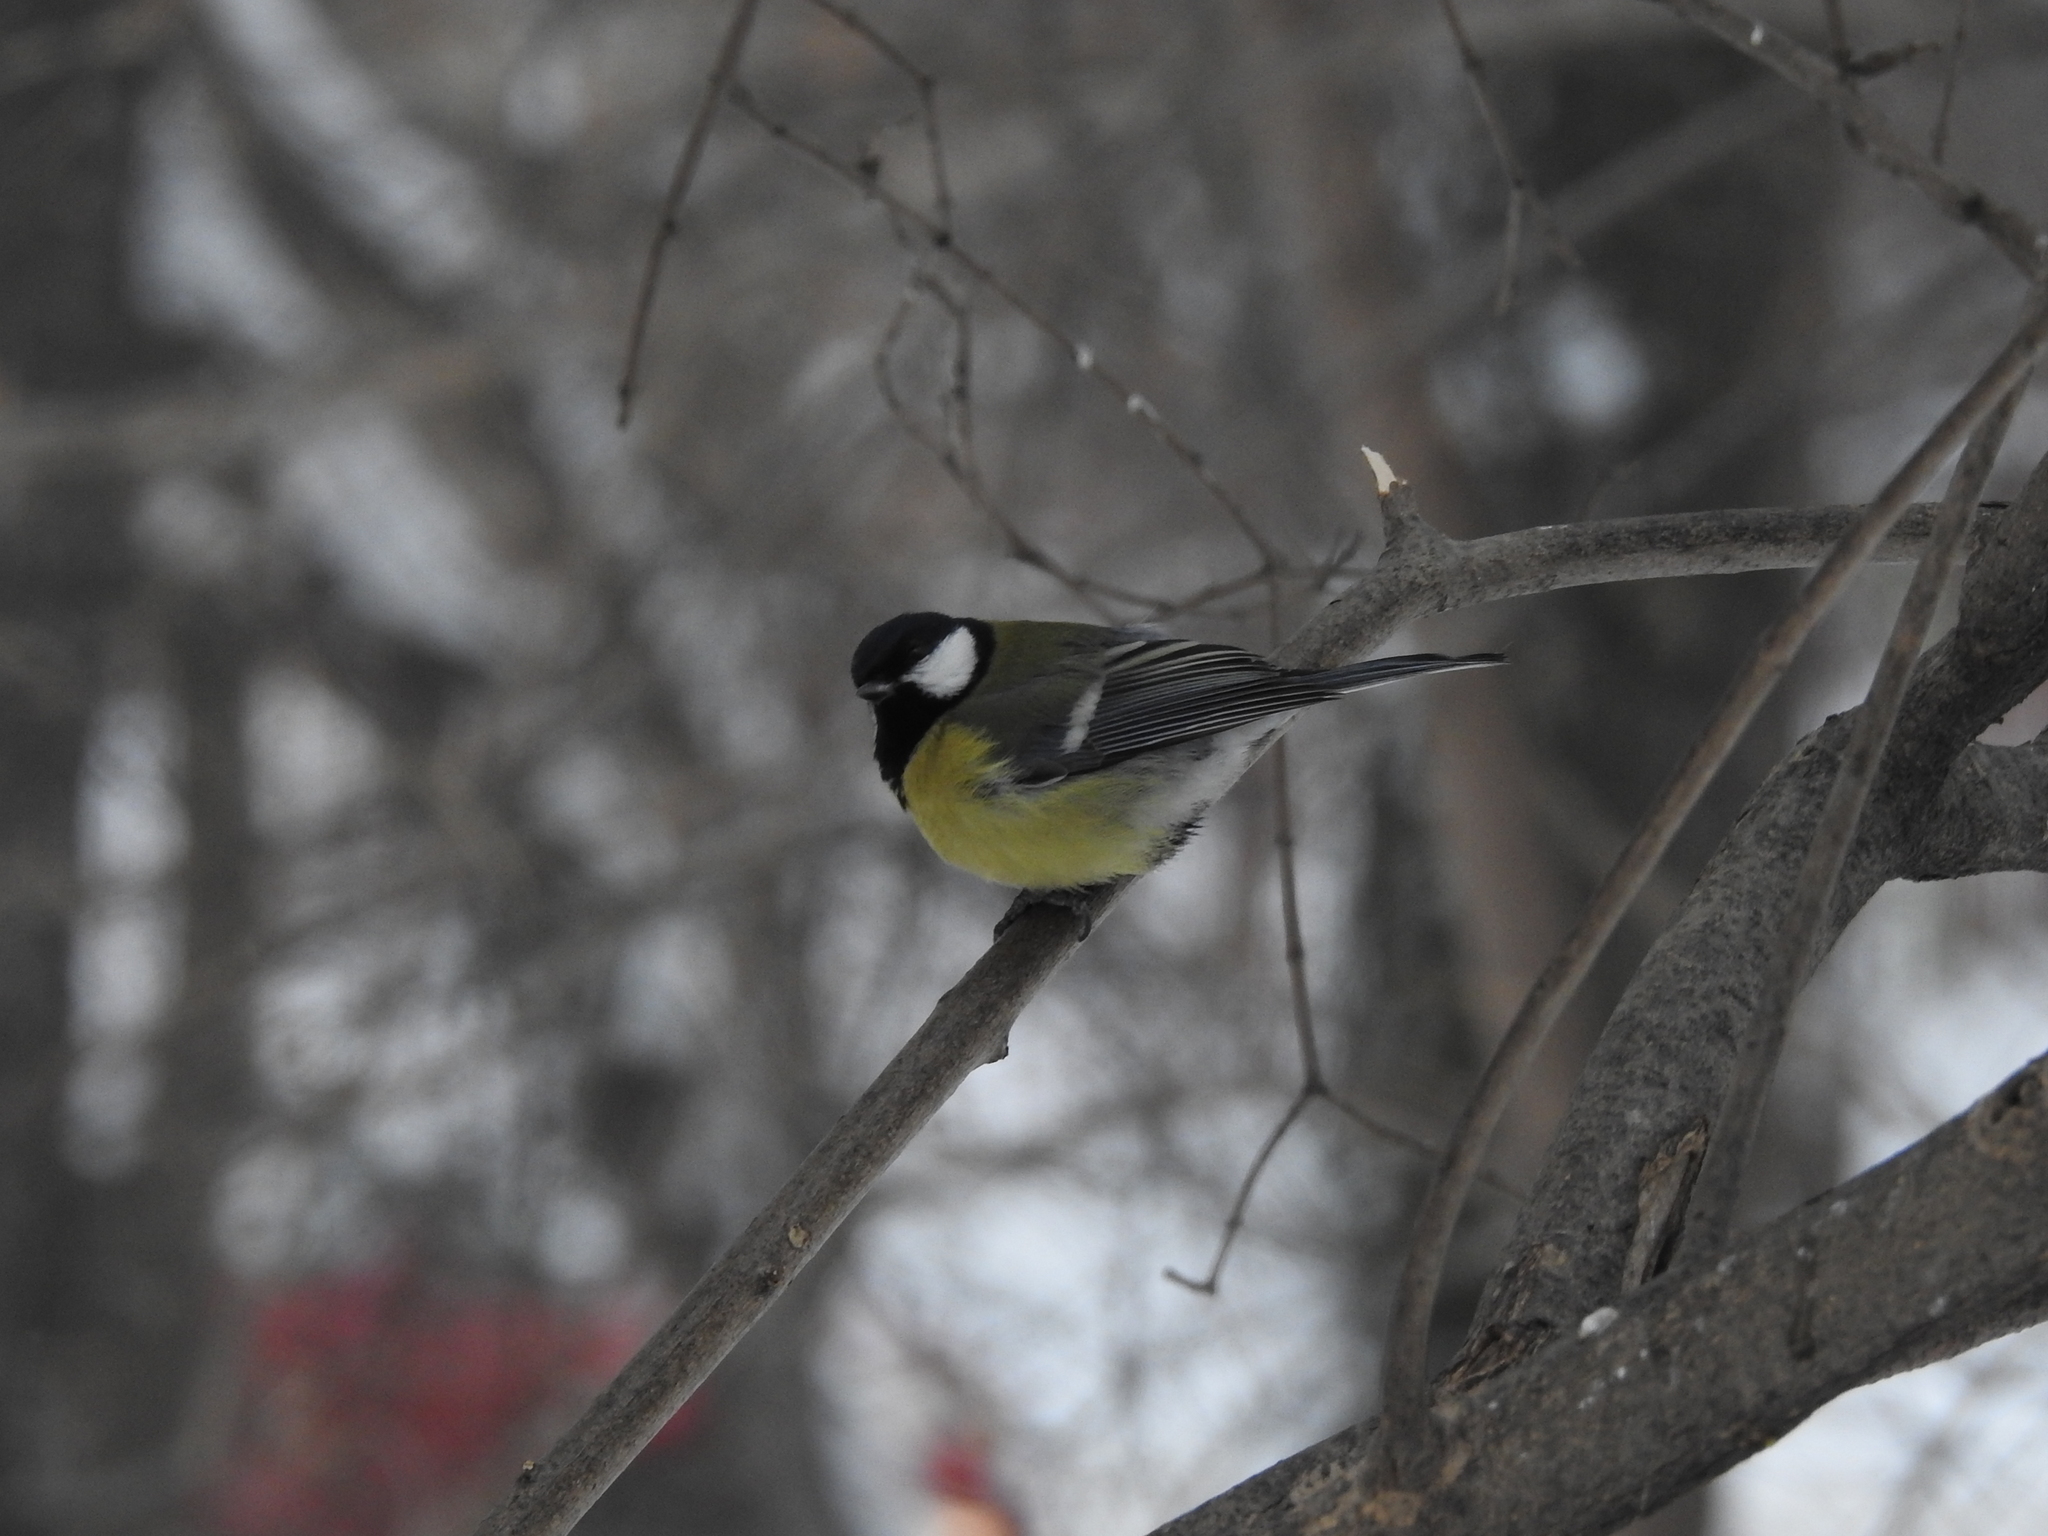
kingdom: Animalia
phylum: Chordata
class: Aves
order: Passeriformes
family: Paridae
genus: Parus
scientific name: Parus major
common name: Great tit
